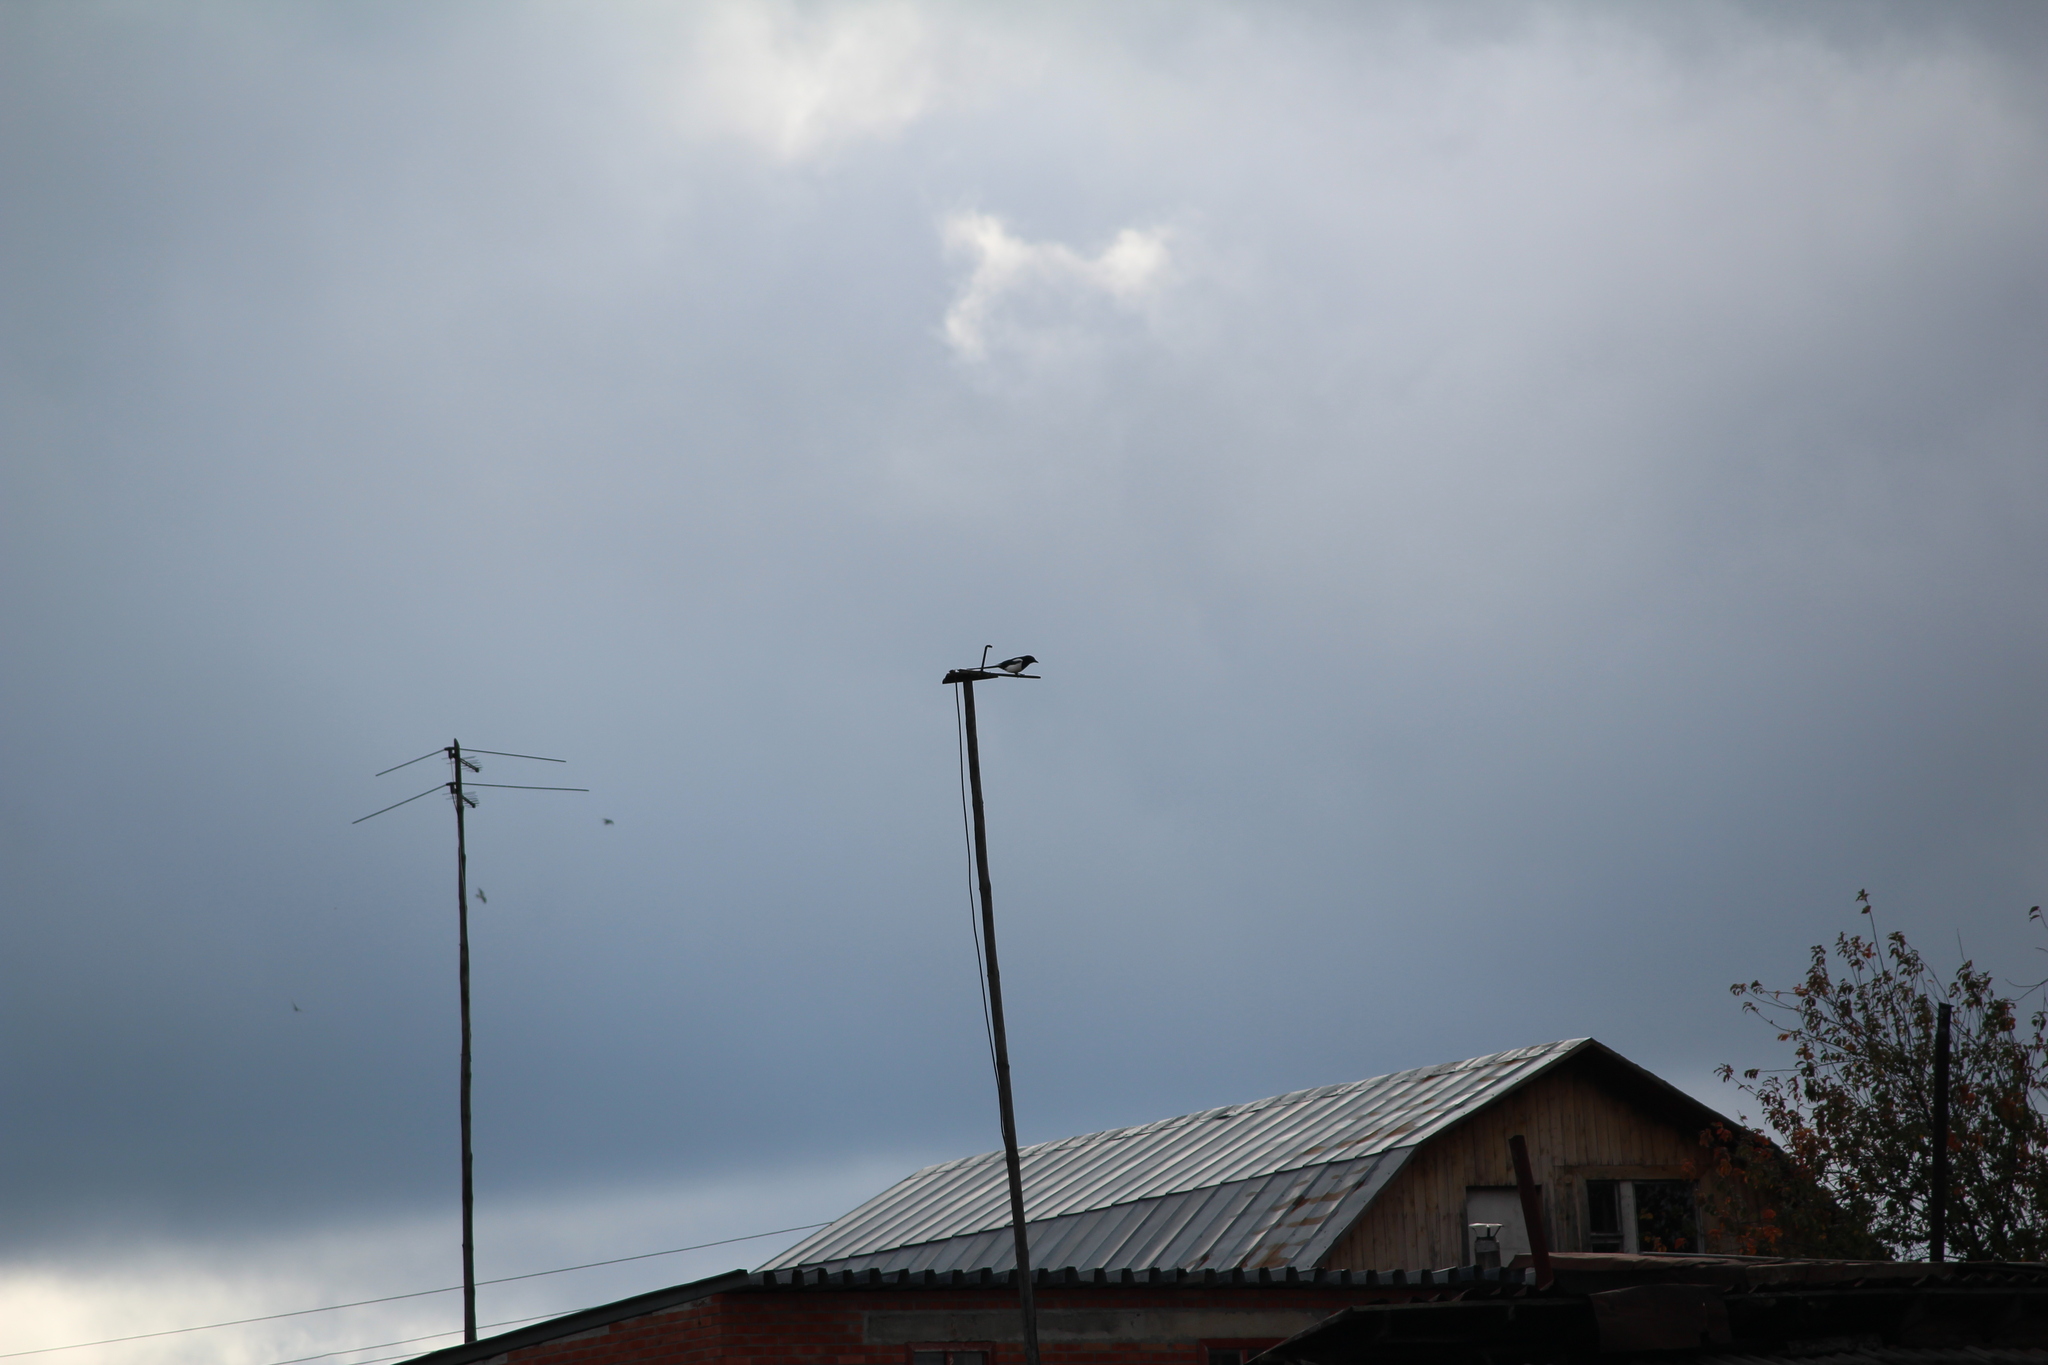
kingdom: Animalia
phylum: Chordata
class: Aves
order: Passeriformes
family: Corvidae
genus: Pica
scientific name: Pica pica
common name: Eurasian magpie
